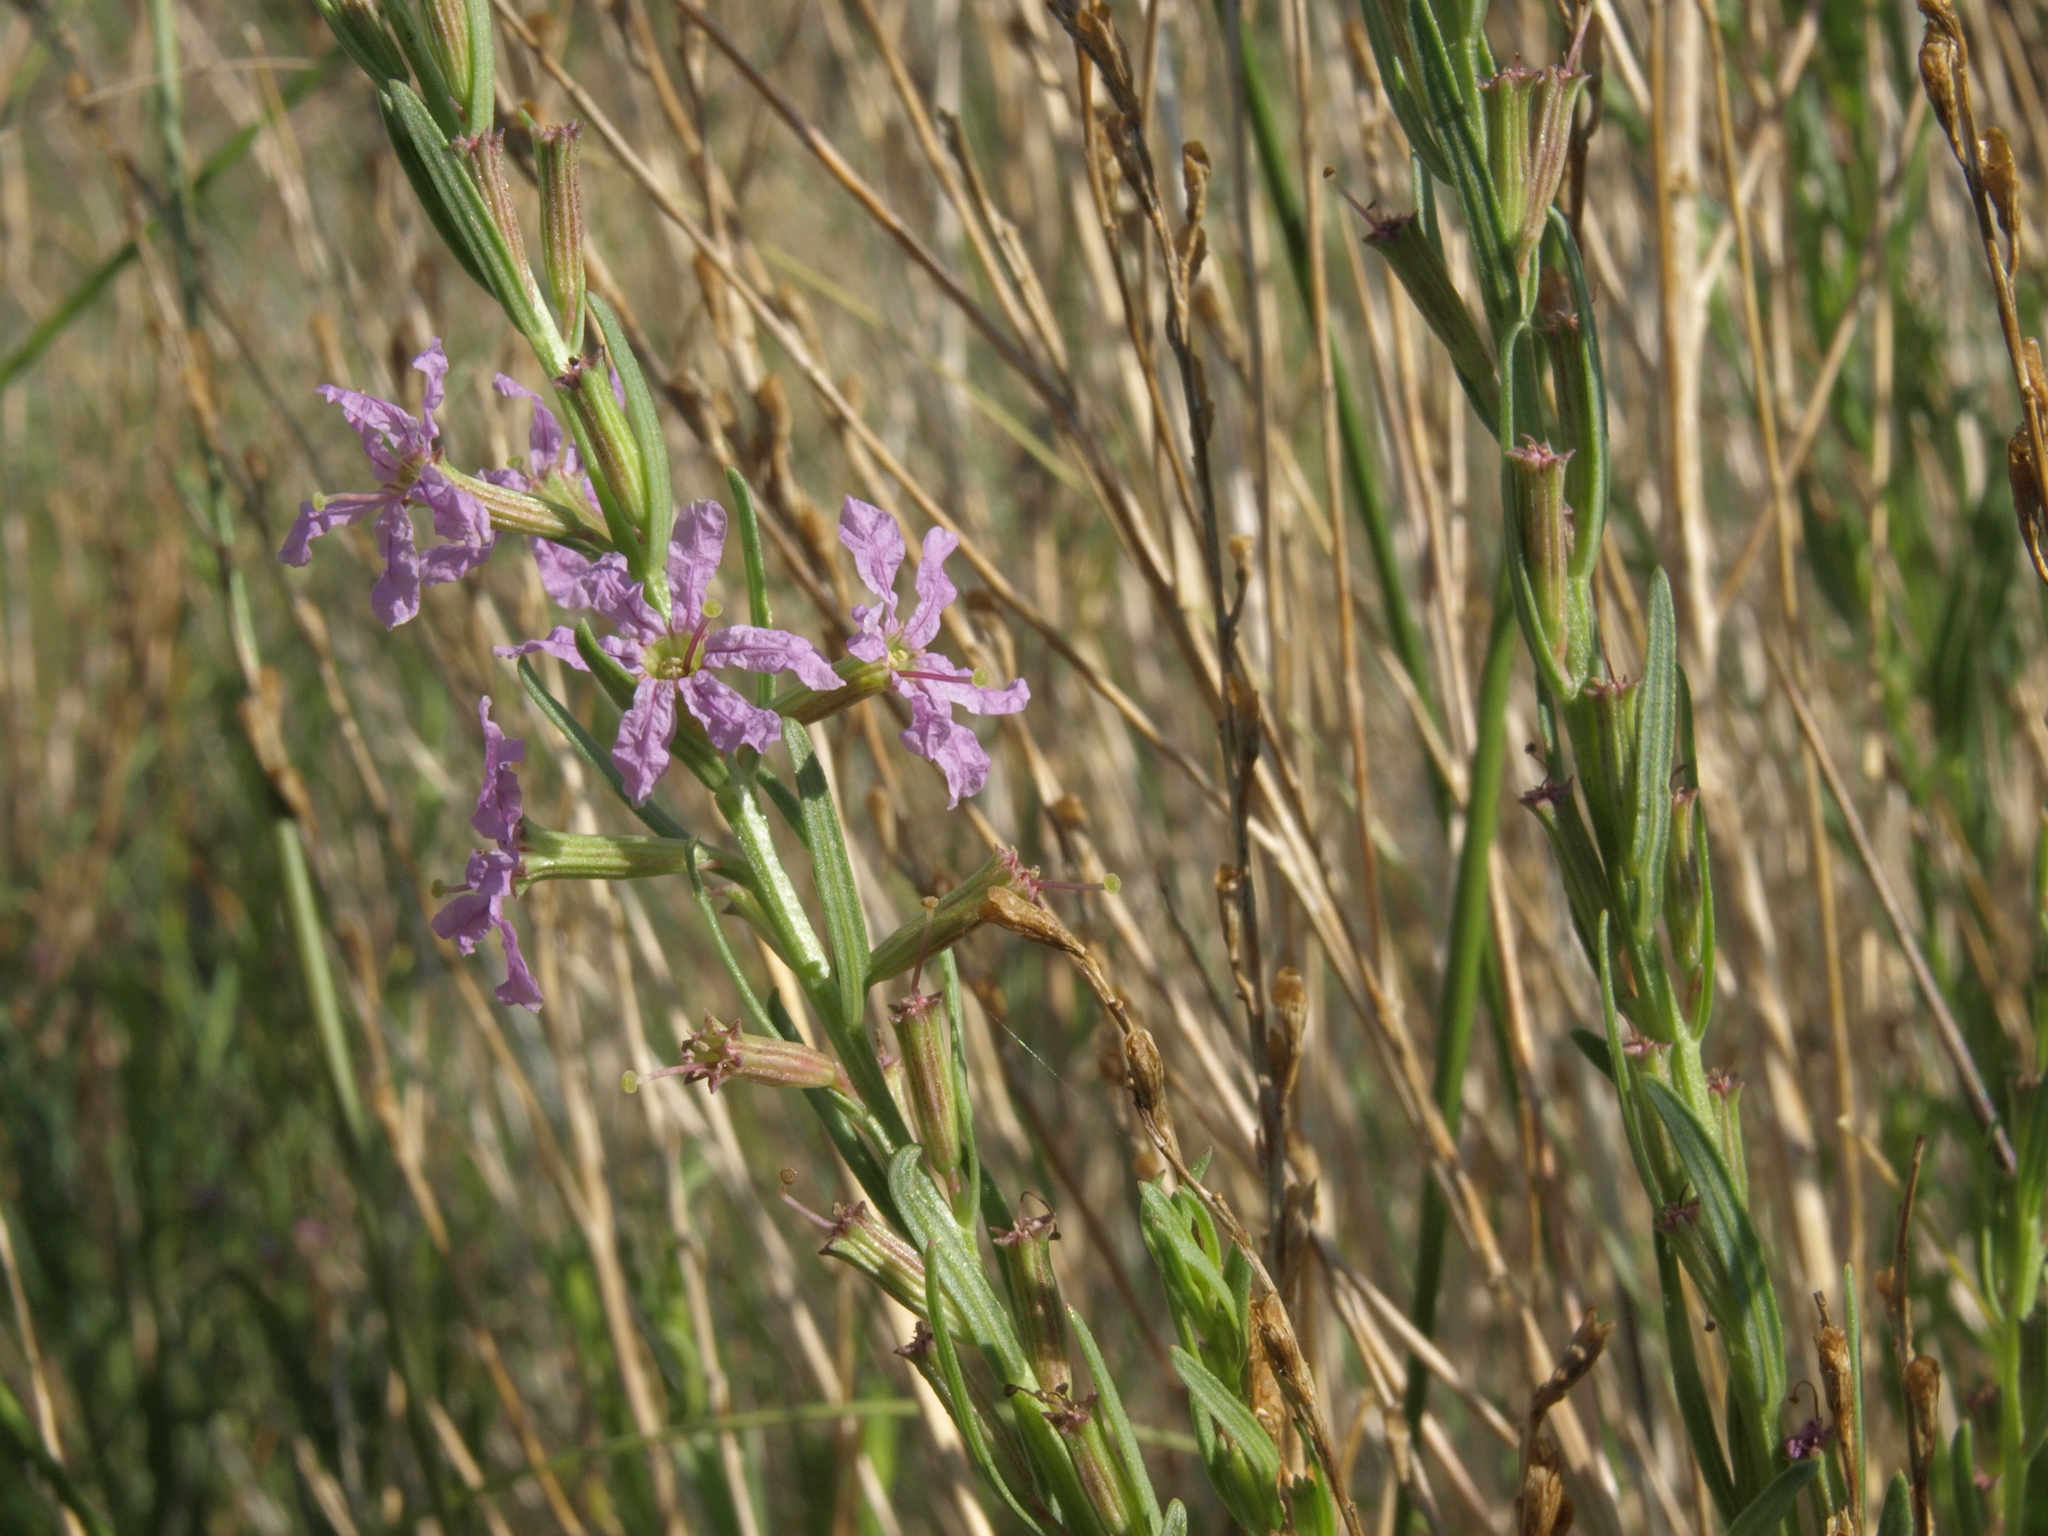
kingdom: Plantae
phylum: Tracheophyta
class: Magnoliopsida
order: Myrtales
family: Lythraceae
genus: Lythrum
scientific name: Lythrum californicum
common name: California loosestrife
